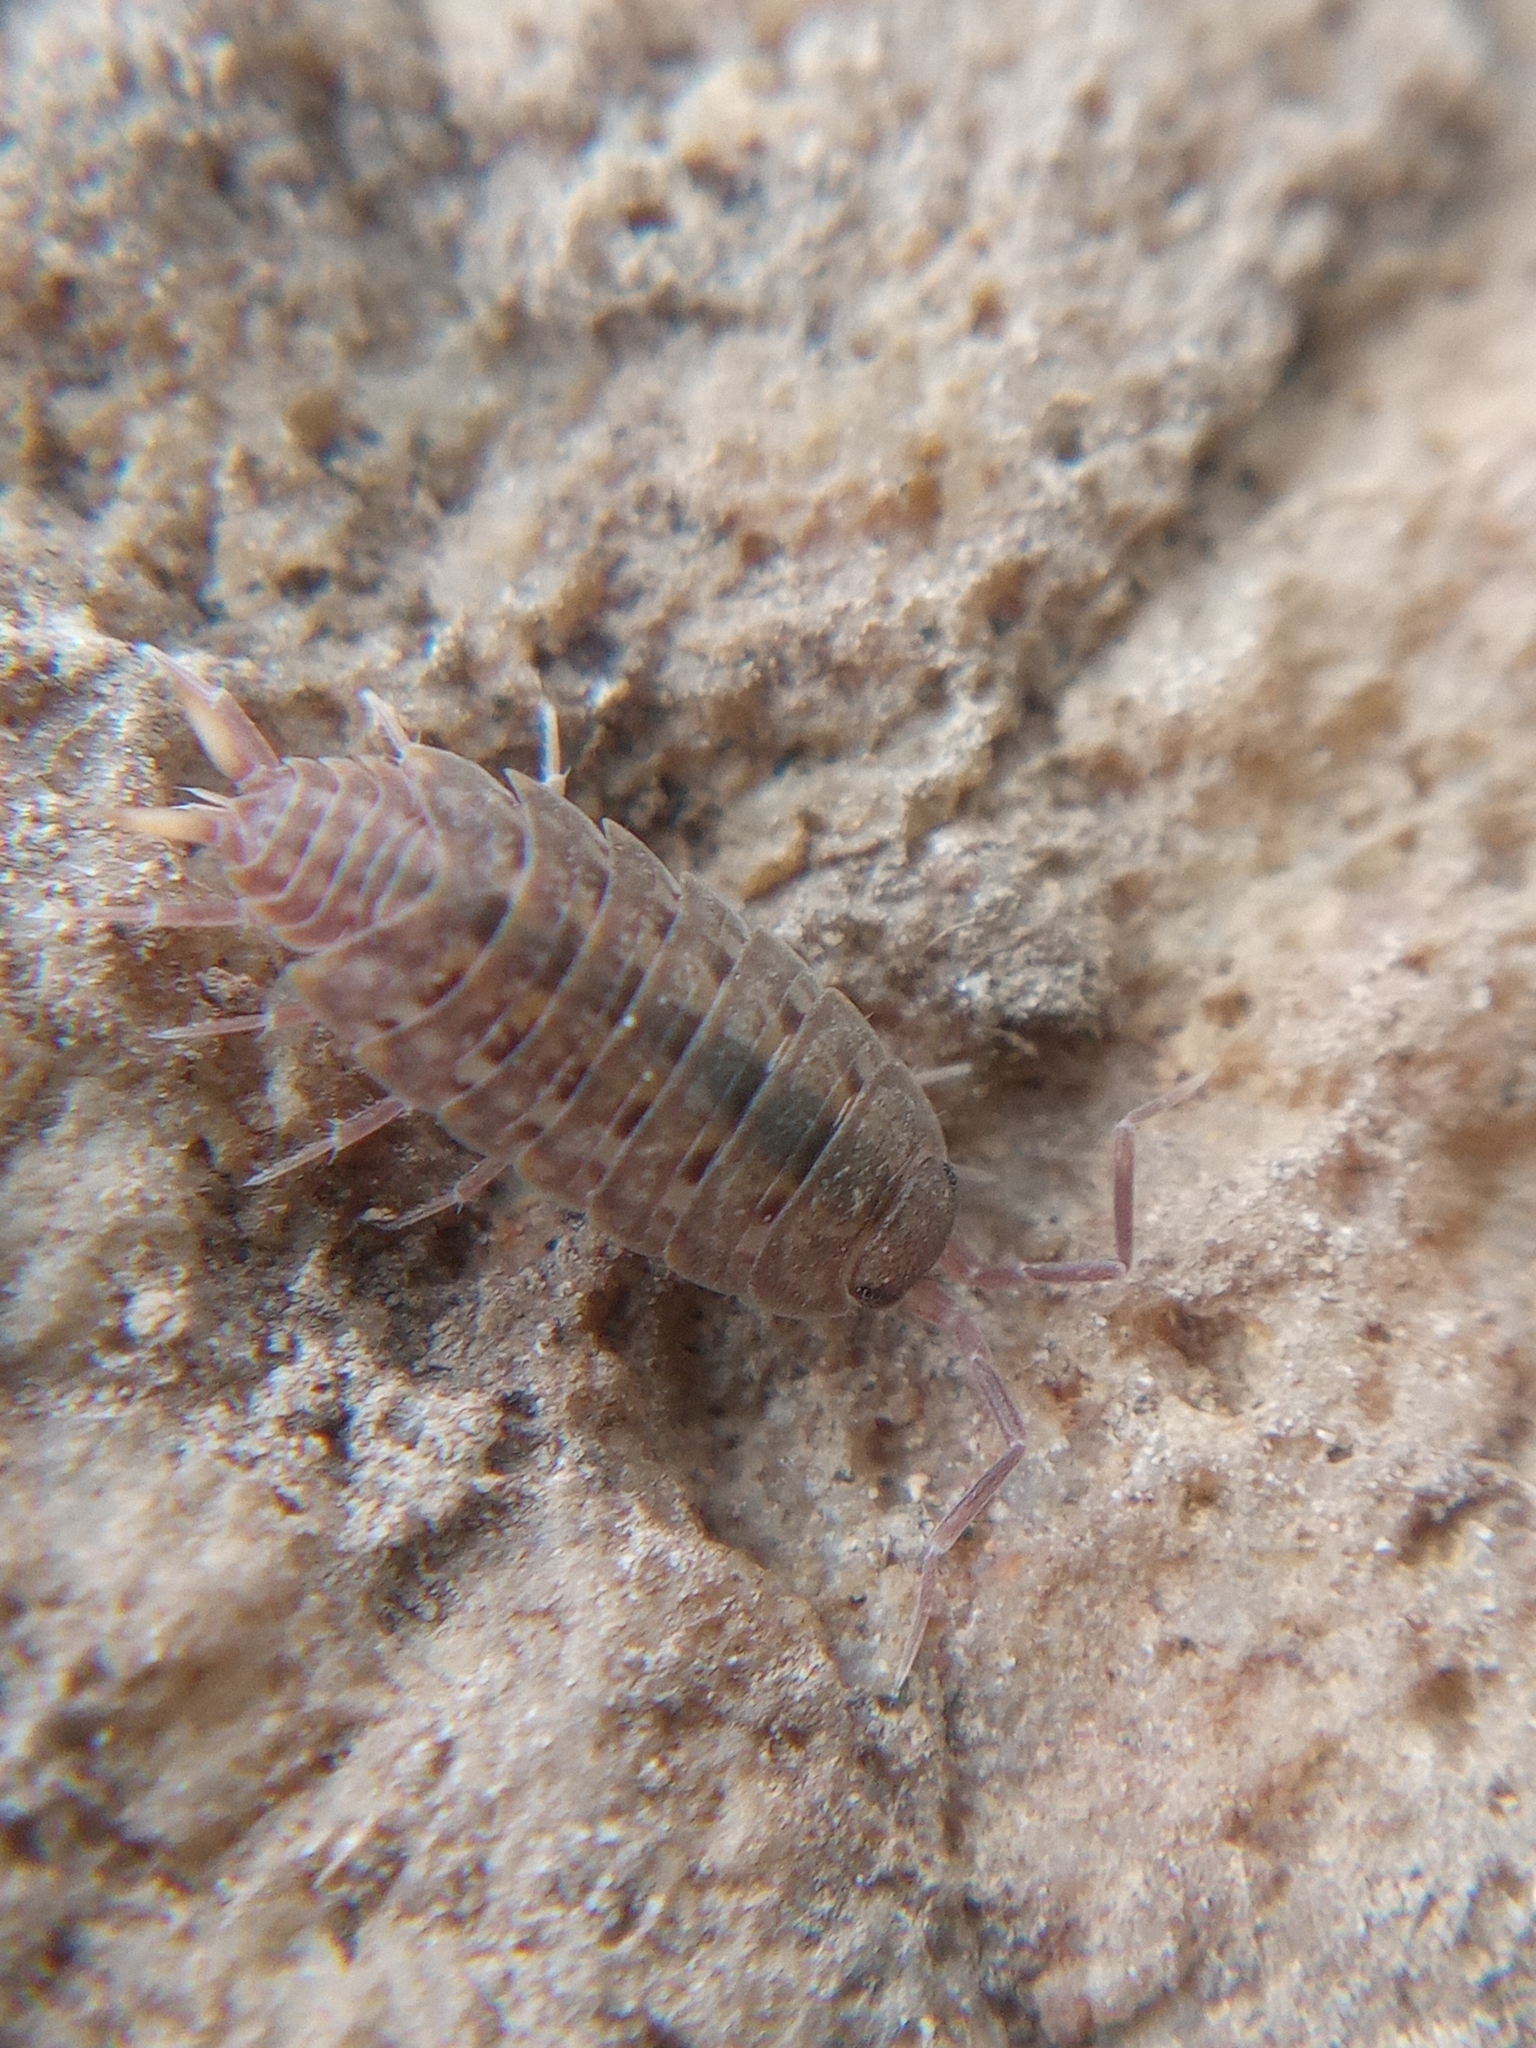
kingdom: Animalia
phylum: Arthropoda
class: Malacostraca
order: Isopoda
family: Agnaridae
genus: Orthometopon
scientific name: Orthometopon planum
